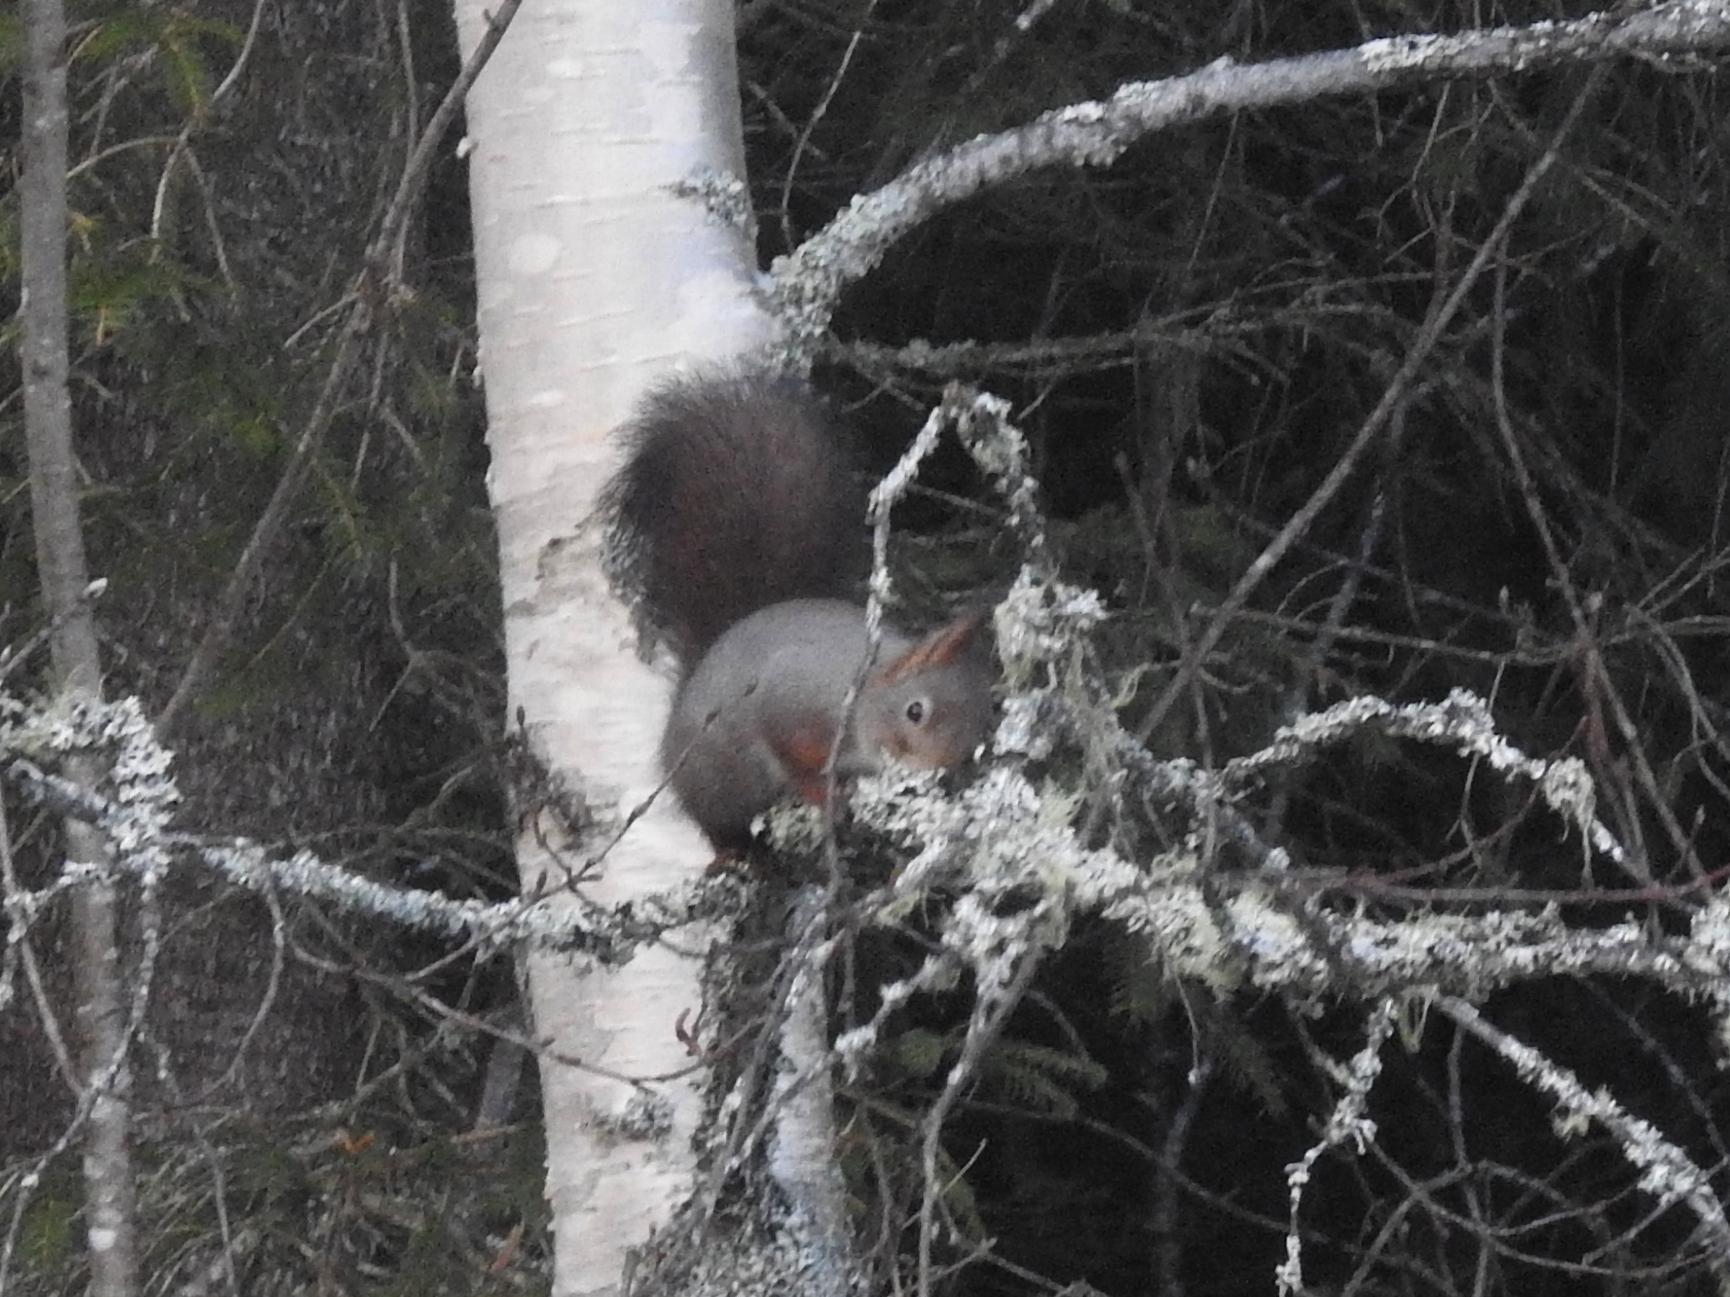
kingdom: Animalia
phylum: Chordata
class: Mammalia
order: Rodentia
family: Sciuridae
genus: Sciurus
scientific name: Sciurus vulgaris
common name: Eurasian red squirrel
